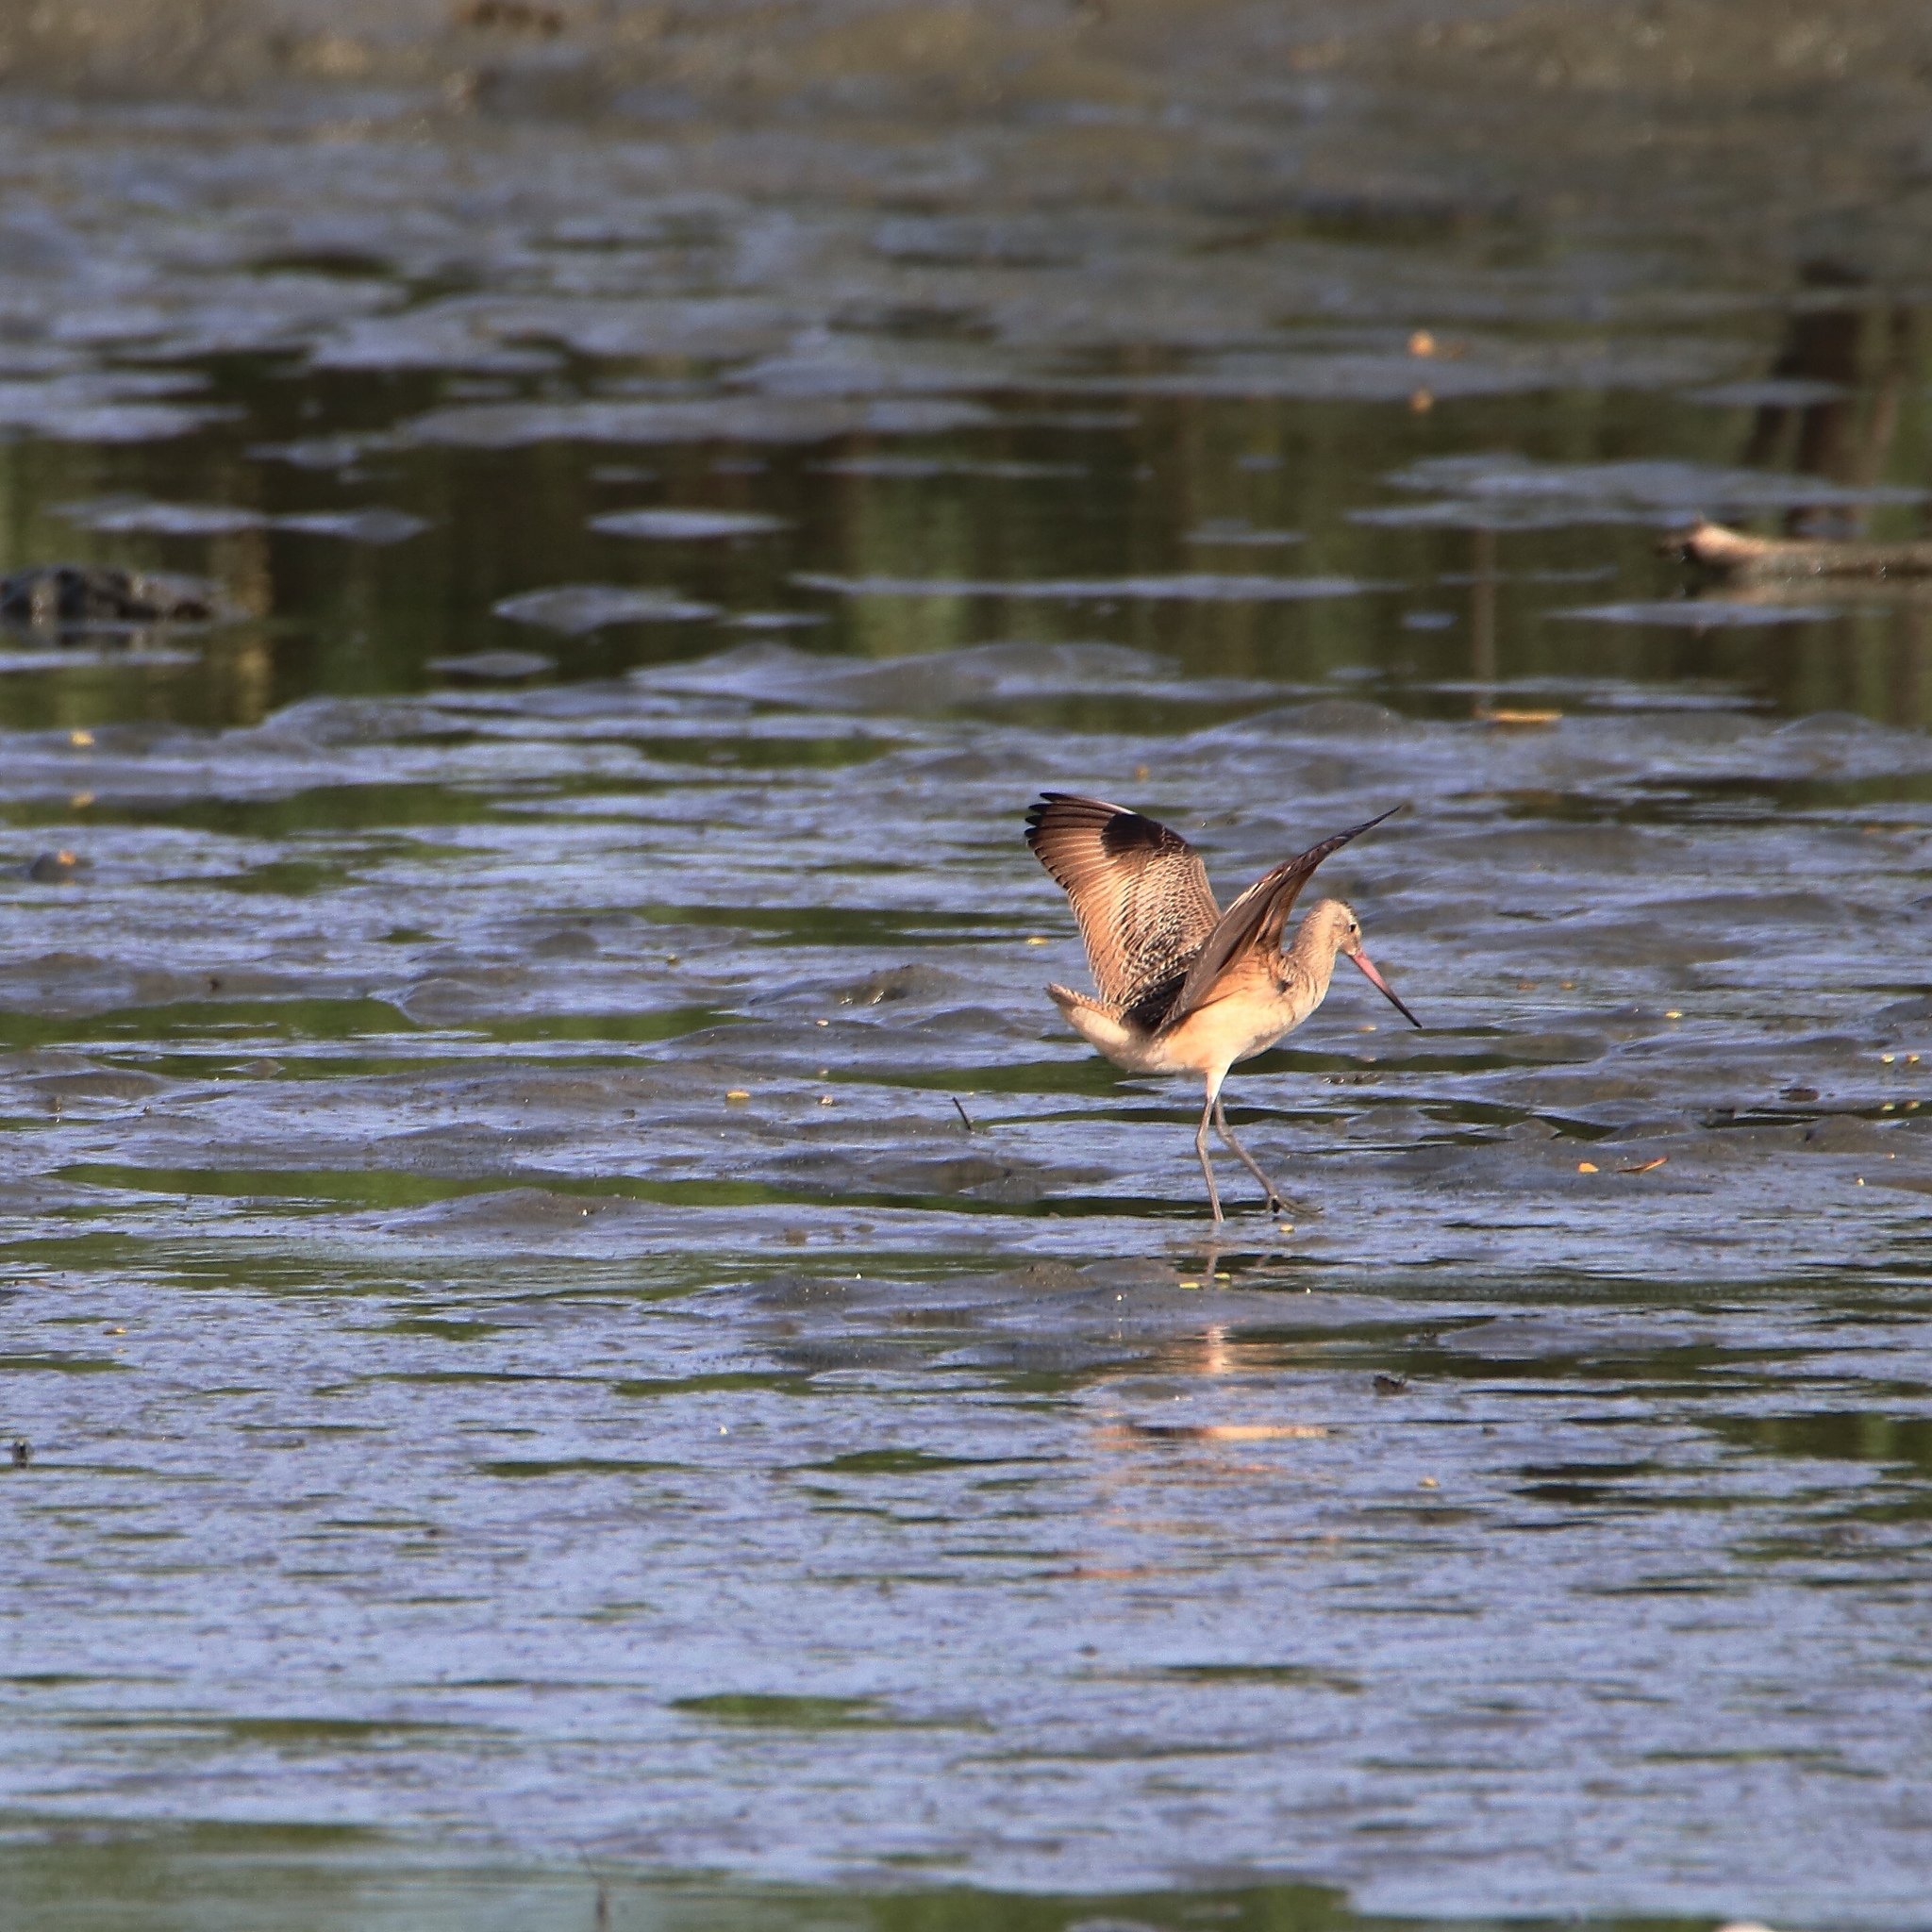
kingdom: Animalia
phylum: Chordata
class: Aves
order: Charadriiformes
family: Scolopacidae
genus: Limosa
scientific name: Limosa fedoa
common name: Marbled godwit
